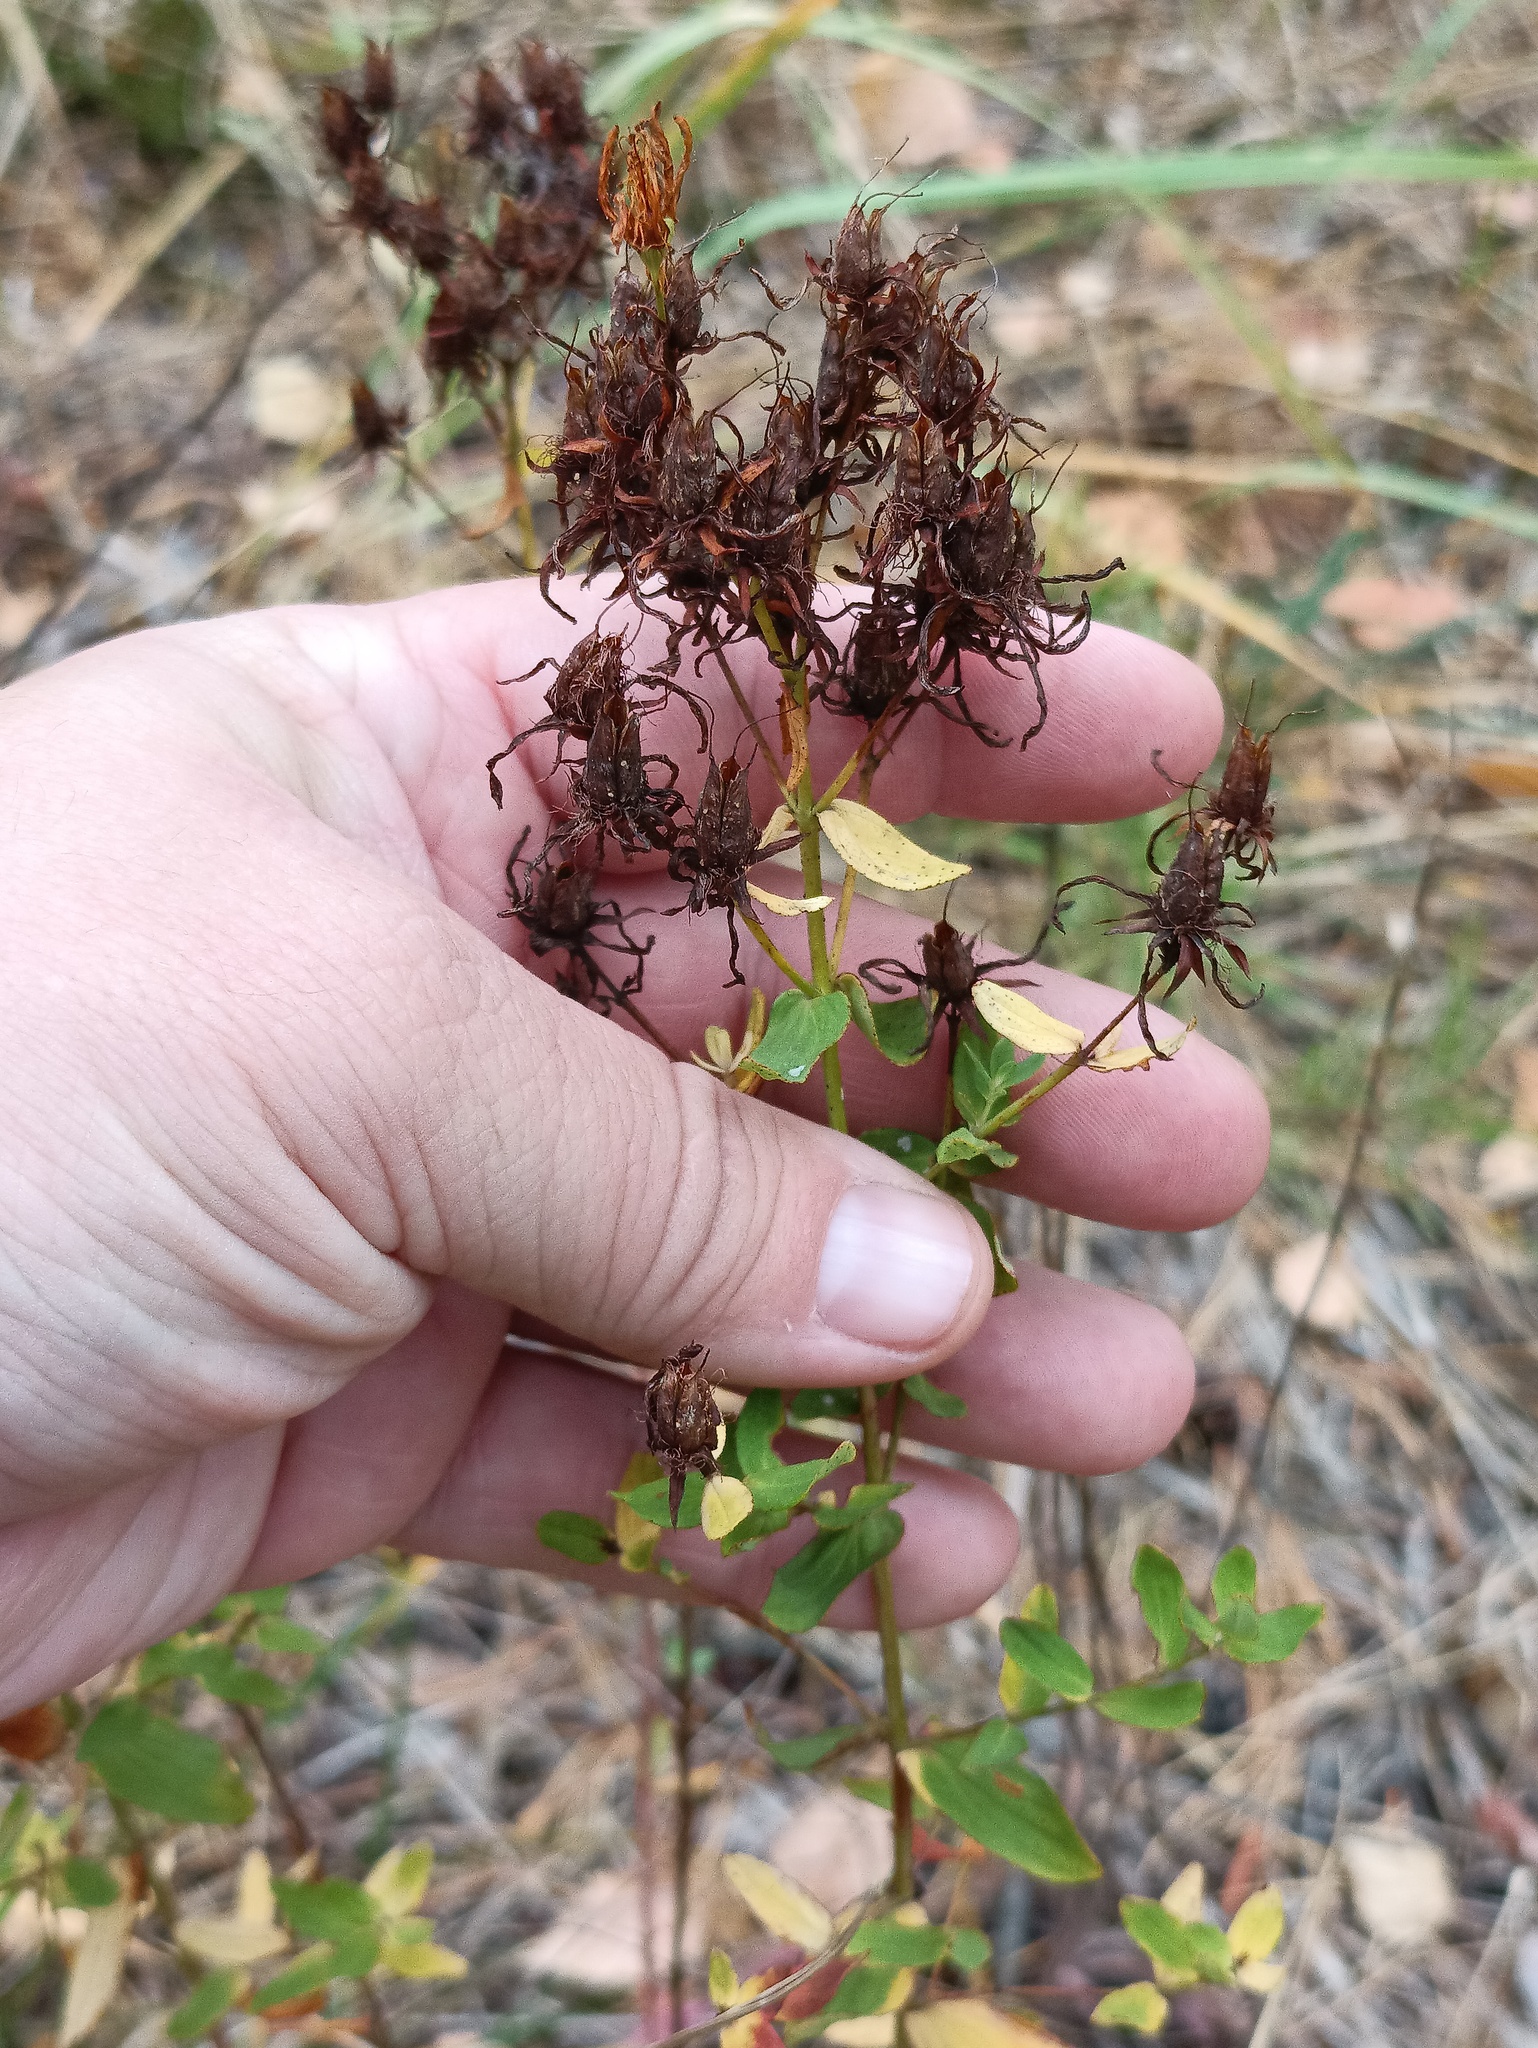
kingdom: Plantae
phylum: Tracheophyta
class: Magnoliopsida
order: Malpighiales
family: Hypericaceae
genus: Hypericum
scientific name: Hypericum perforatum
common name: Common st. johnswort
